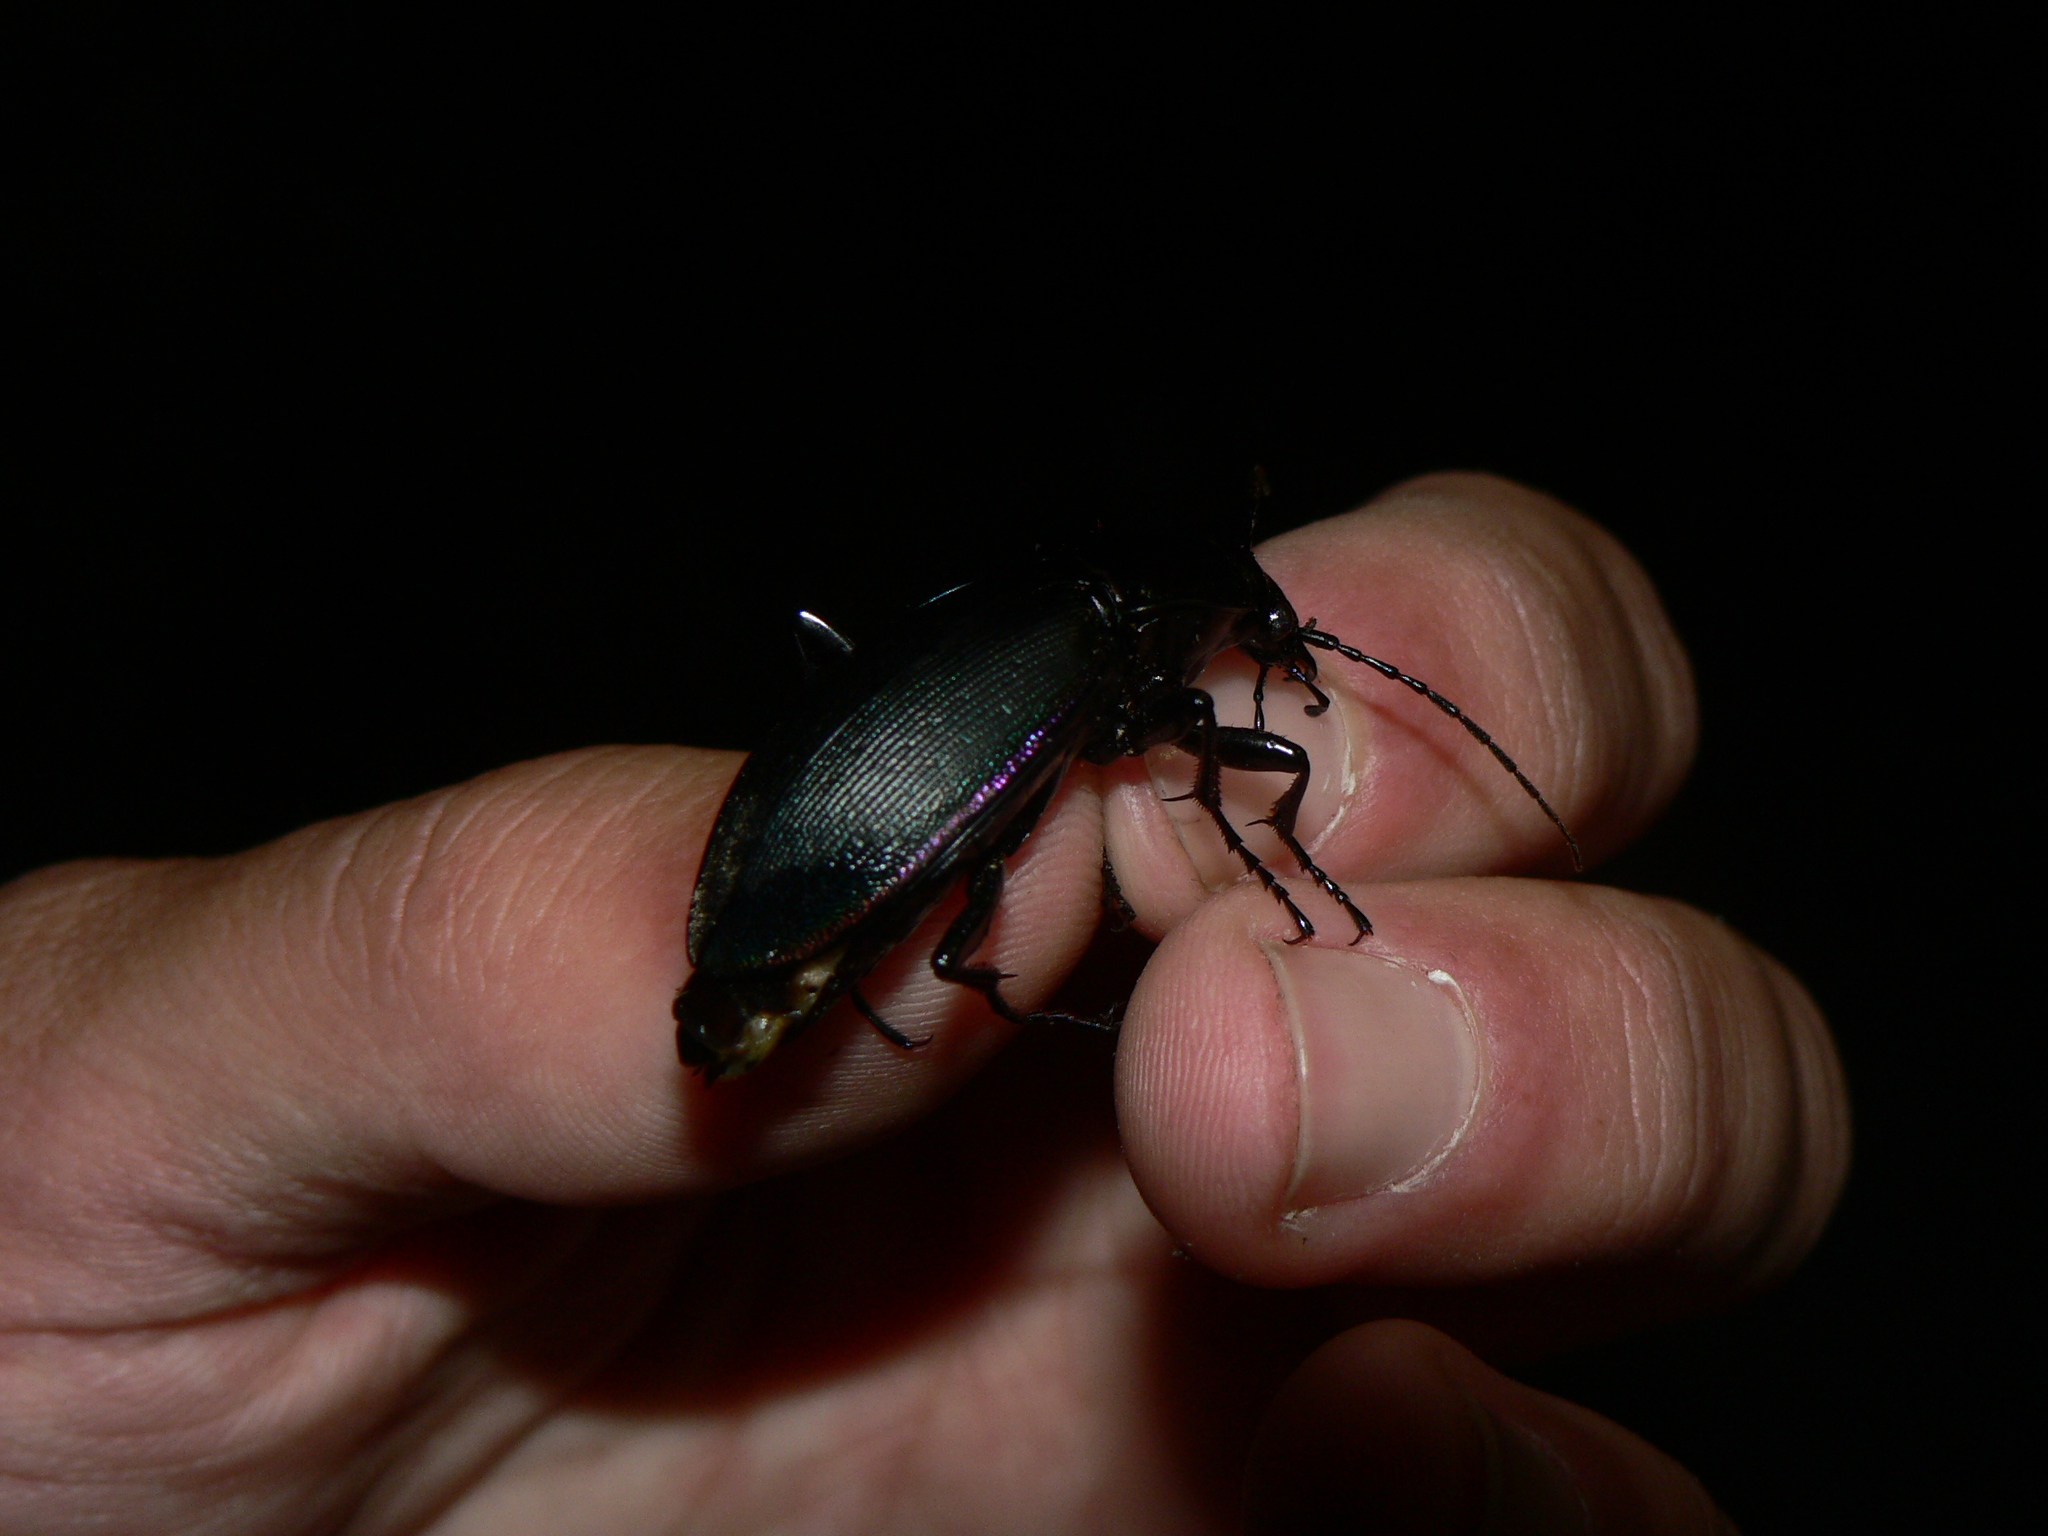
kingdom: Animalia
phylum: Arthropoda
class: Insecta
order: Coleoptera
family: Carabidae
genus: Carabus
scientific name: Carabus purpurascens
